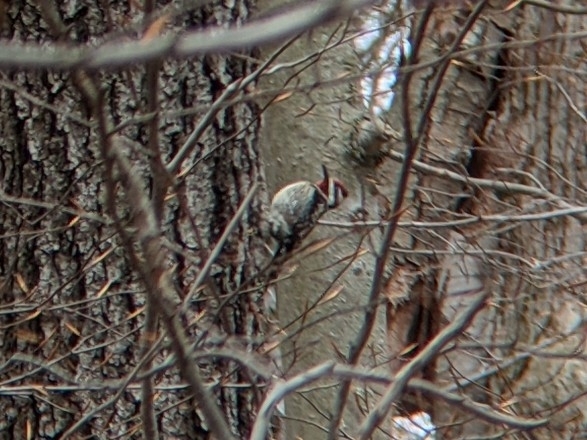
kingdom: Animalia
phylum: Chordata
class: Aves
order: Piciformes
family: Picidae
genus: Sphyrapicus
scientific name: Sphyrapicus varius
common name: Yellow-bellied sapsucker
